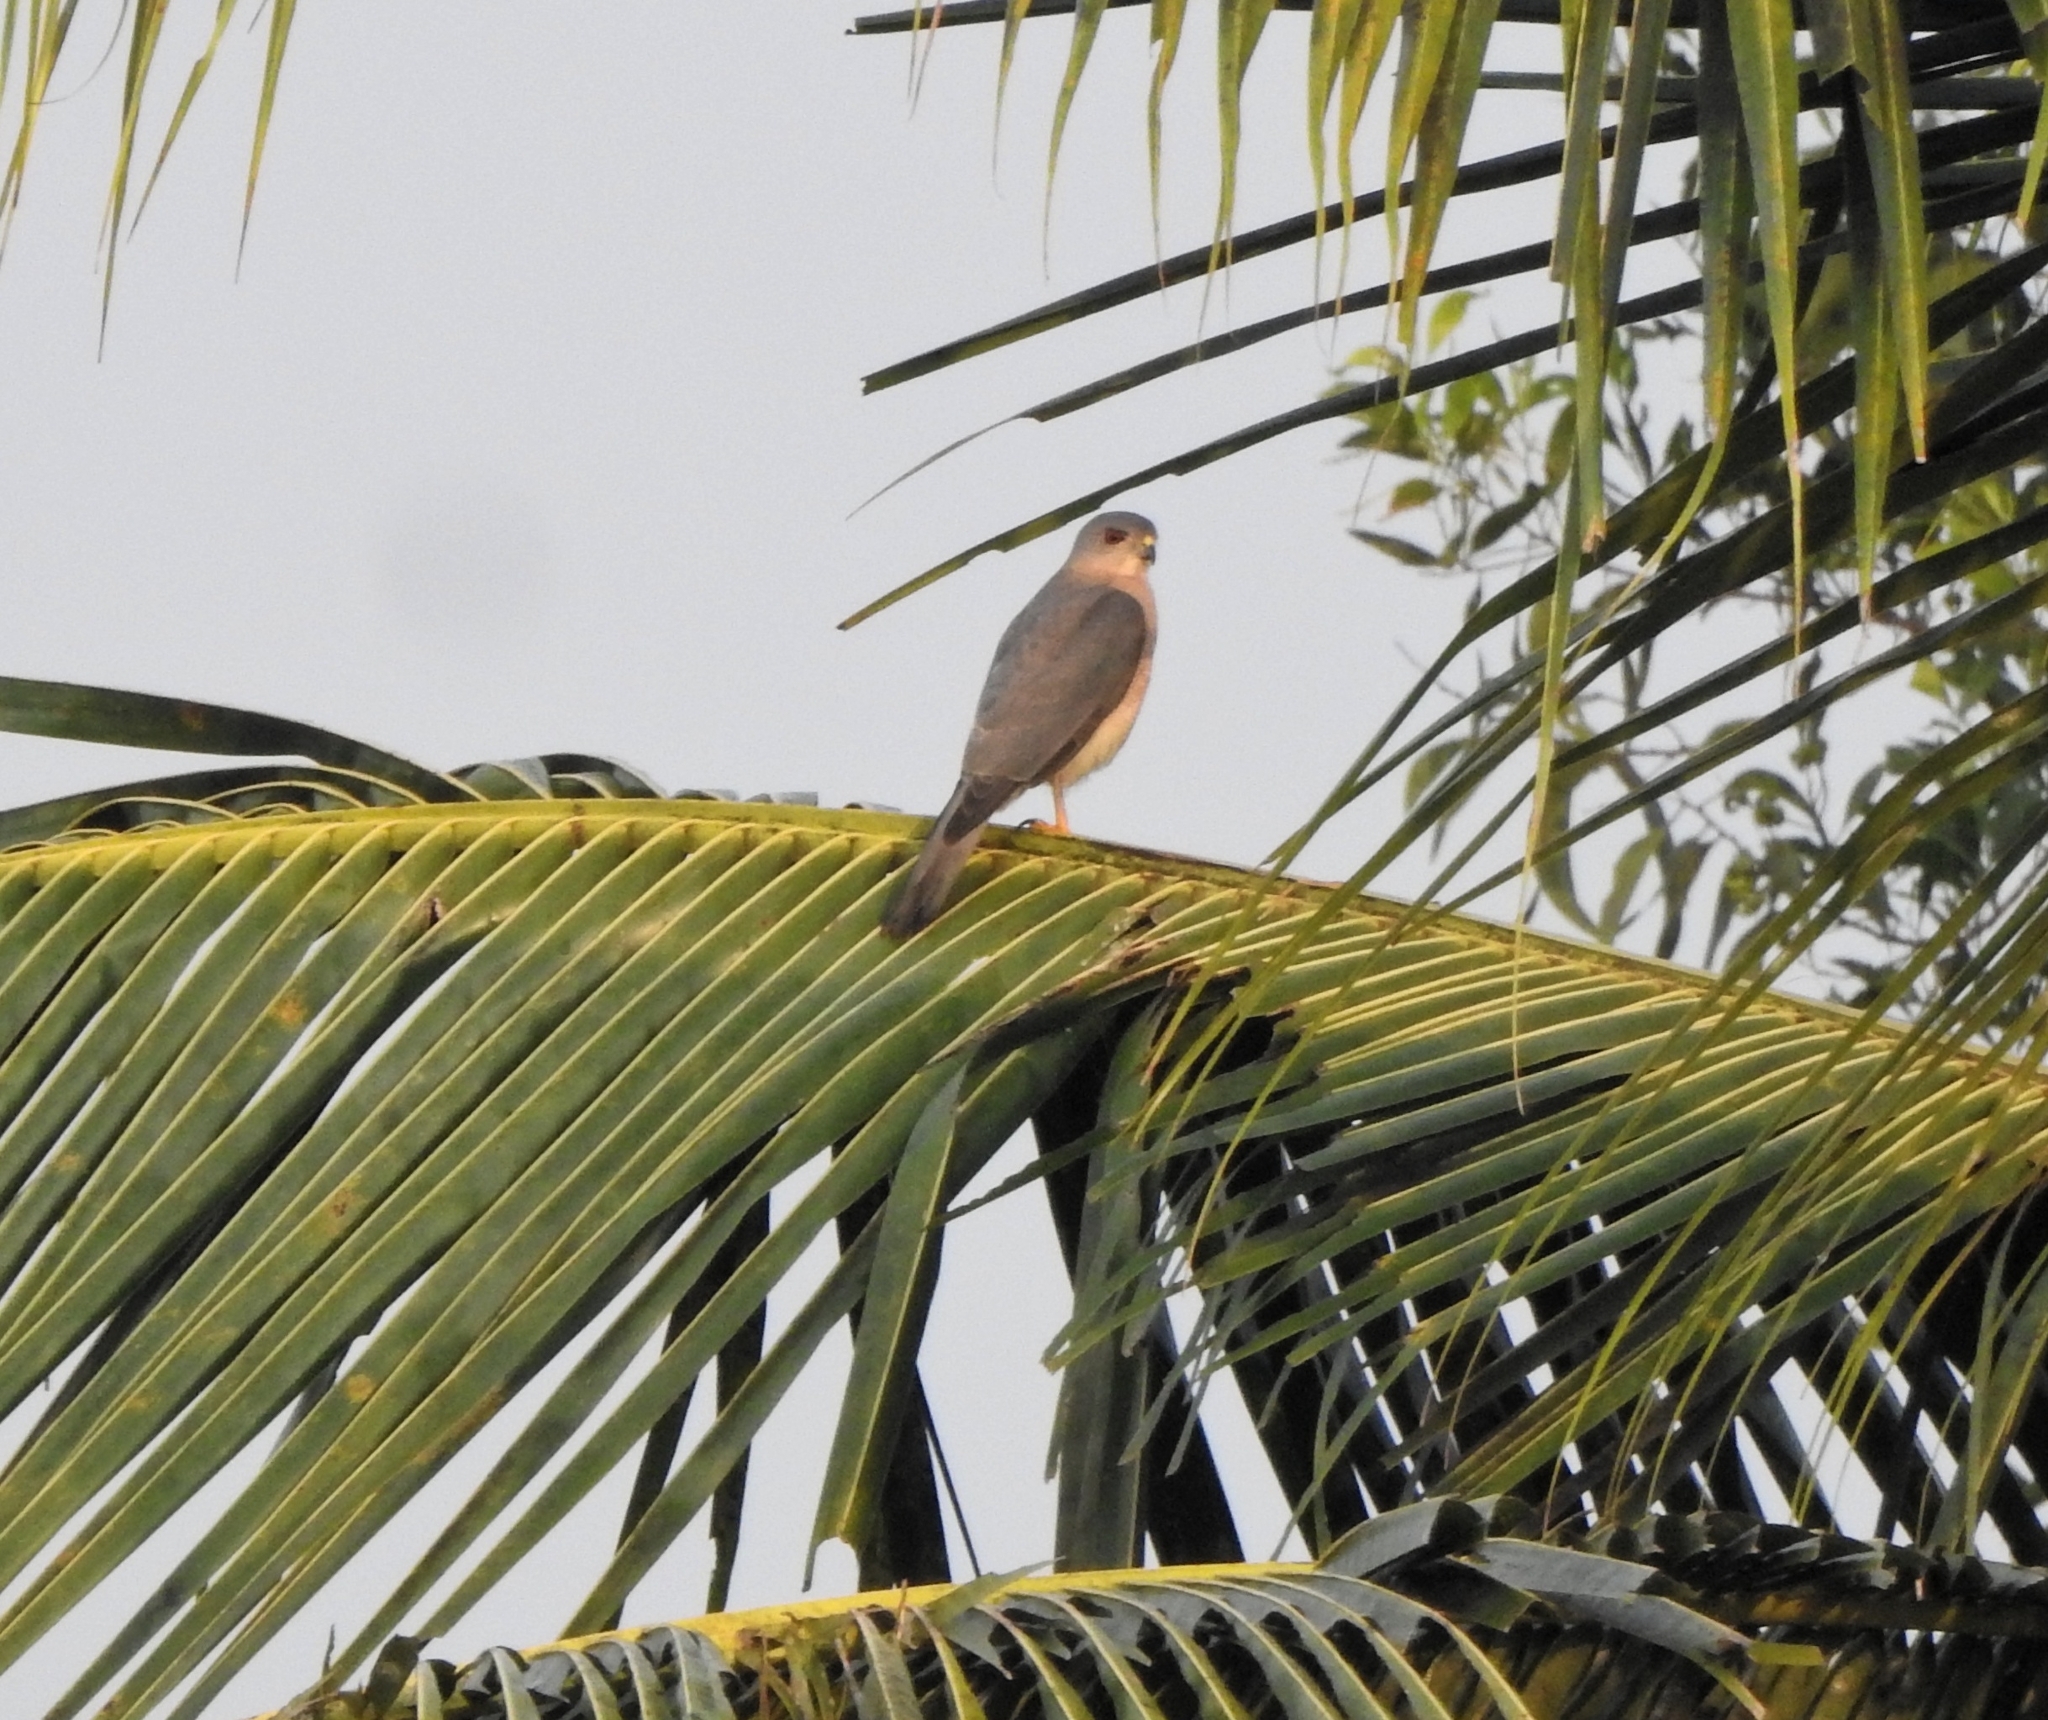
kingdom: Animalia
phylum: Chordata
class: Aves
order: Accipitriformes
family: Accipitridae
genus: Accipiter
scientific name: Accipiter badius
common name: Shikra
